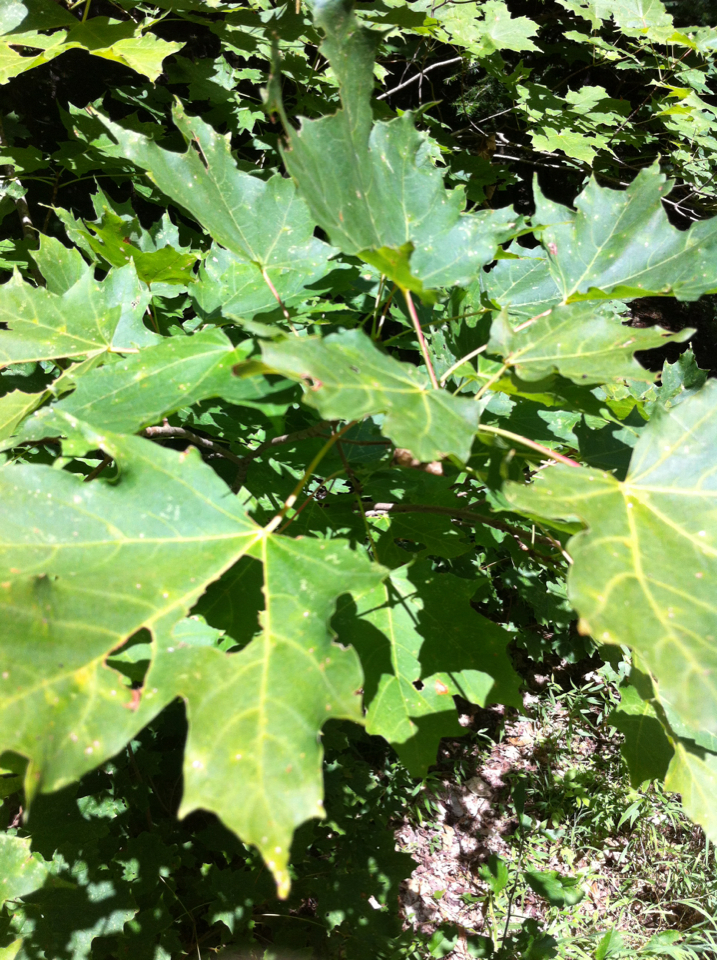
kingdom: Plantae
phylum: Tracheophyta
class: Magnoliopsida
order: Sapindales
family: Sapindaceae
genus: Acer
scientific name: Acer saccharum
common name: Sugar maple
